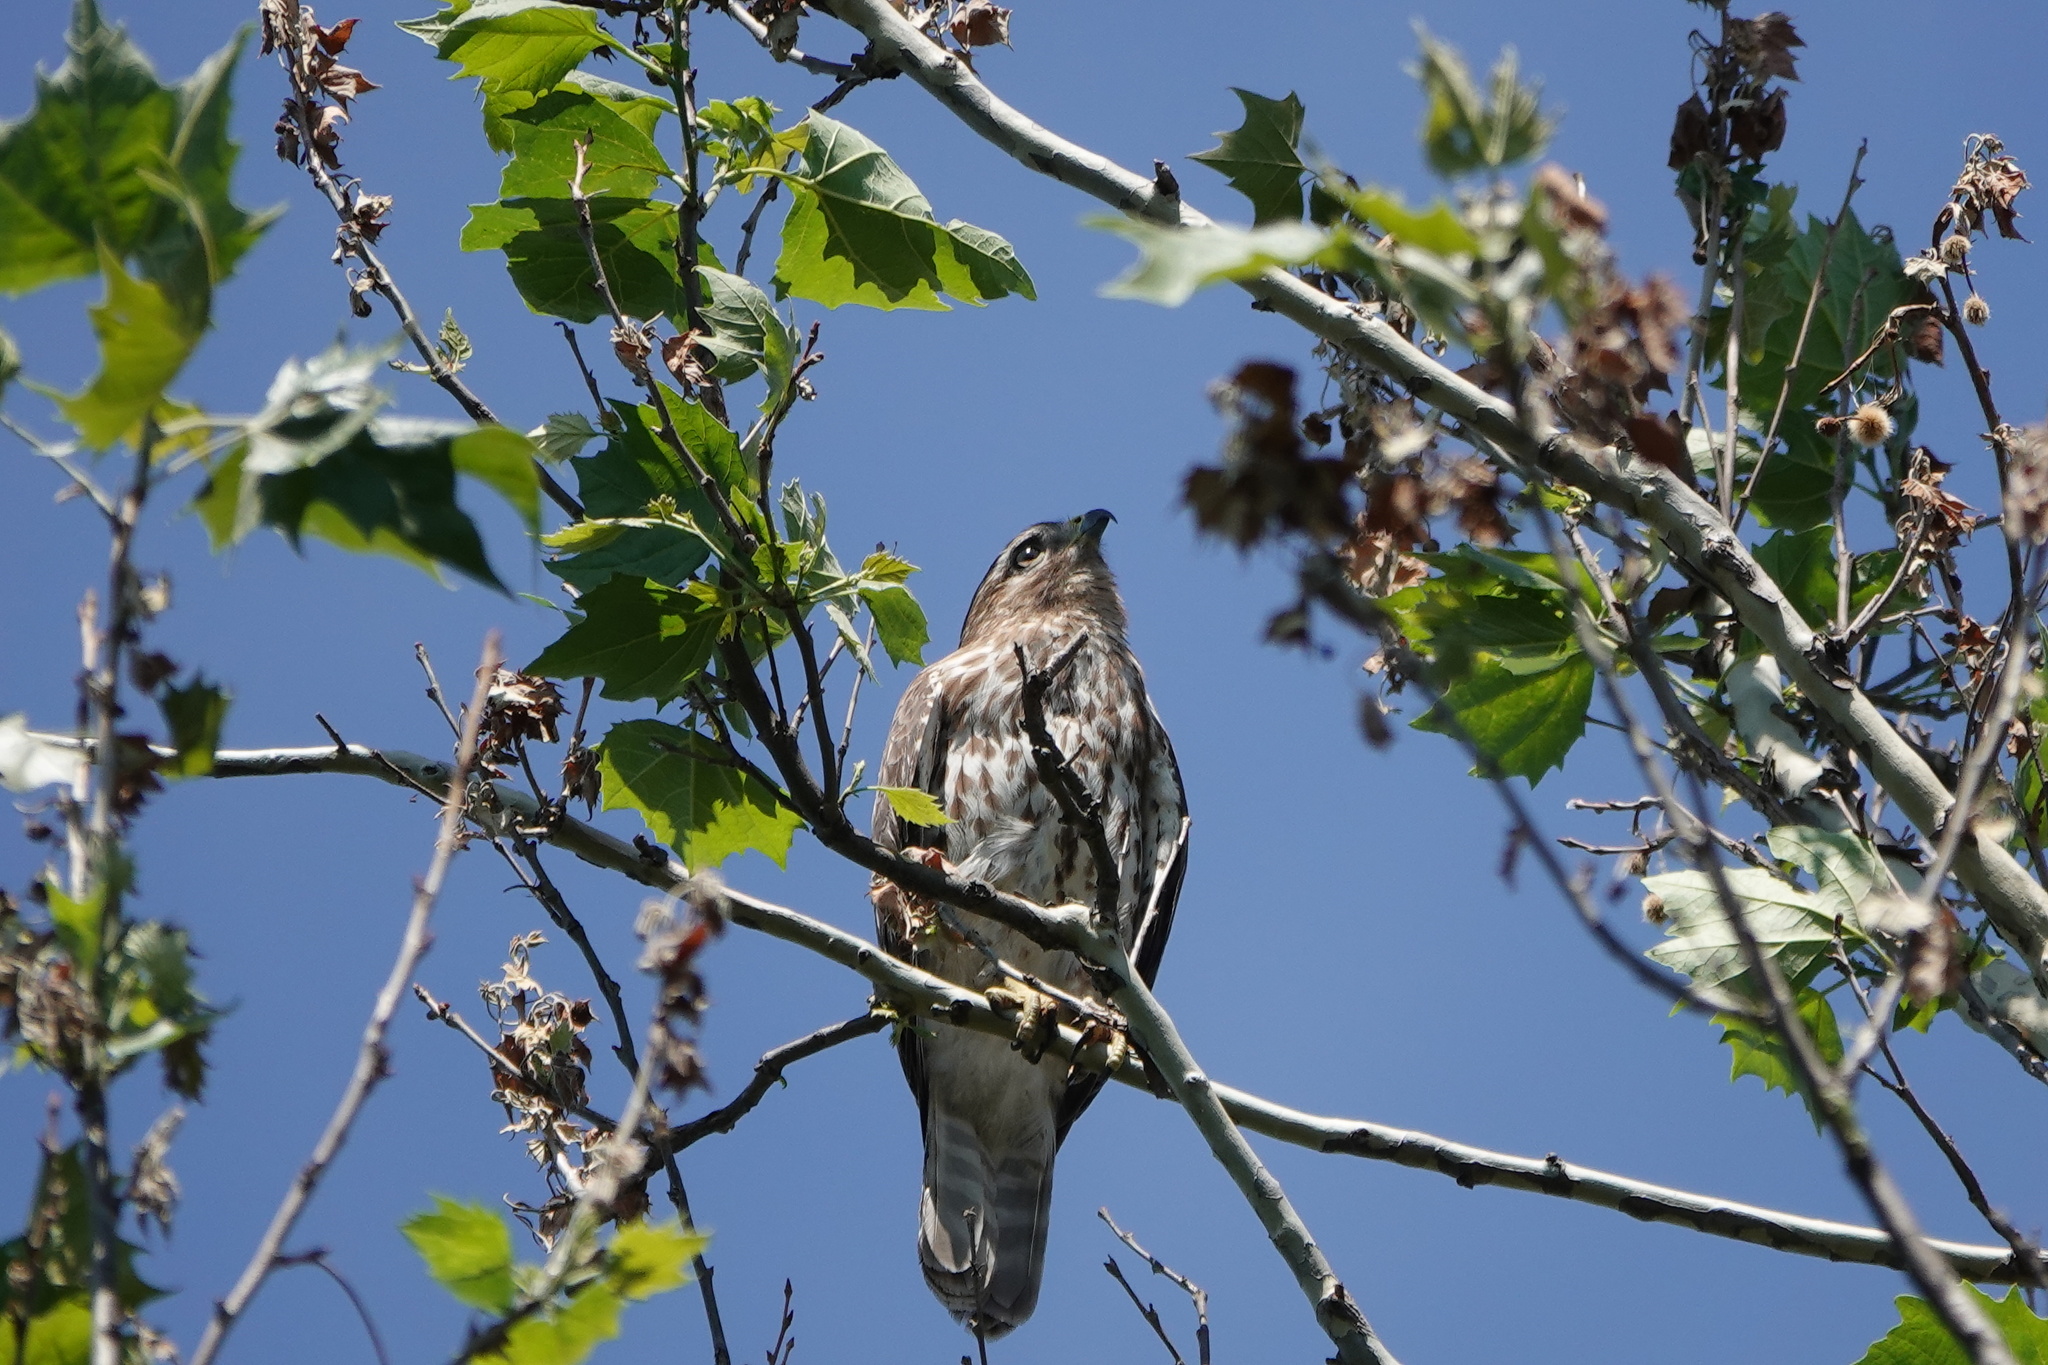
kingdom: Animalia
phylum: Chordata
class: Aves
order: Accipitriformes
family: Accipitridae
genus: Buteo
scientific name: Buteo lineatus
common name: Red-shouldered hawk
